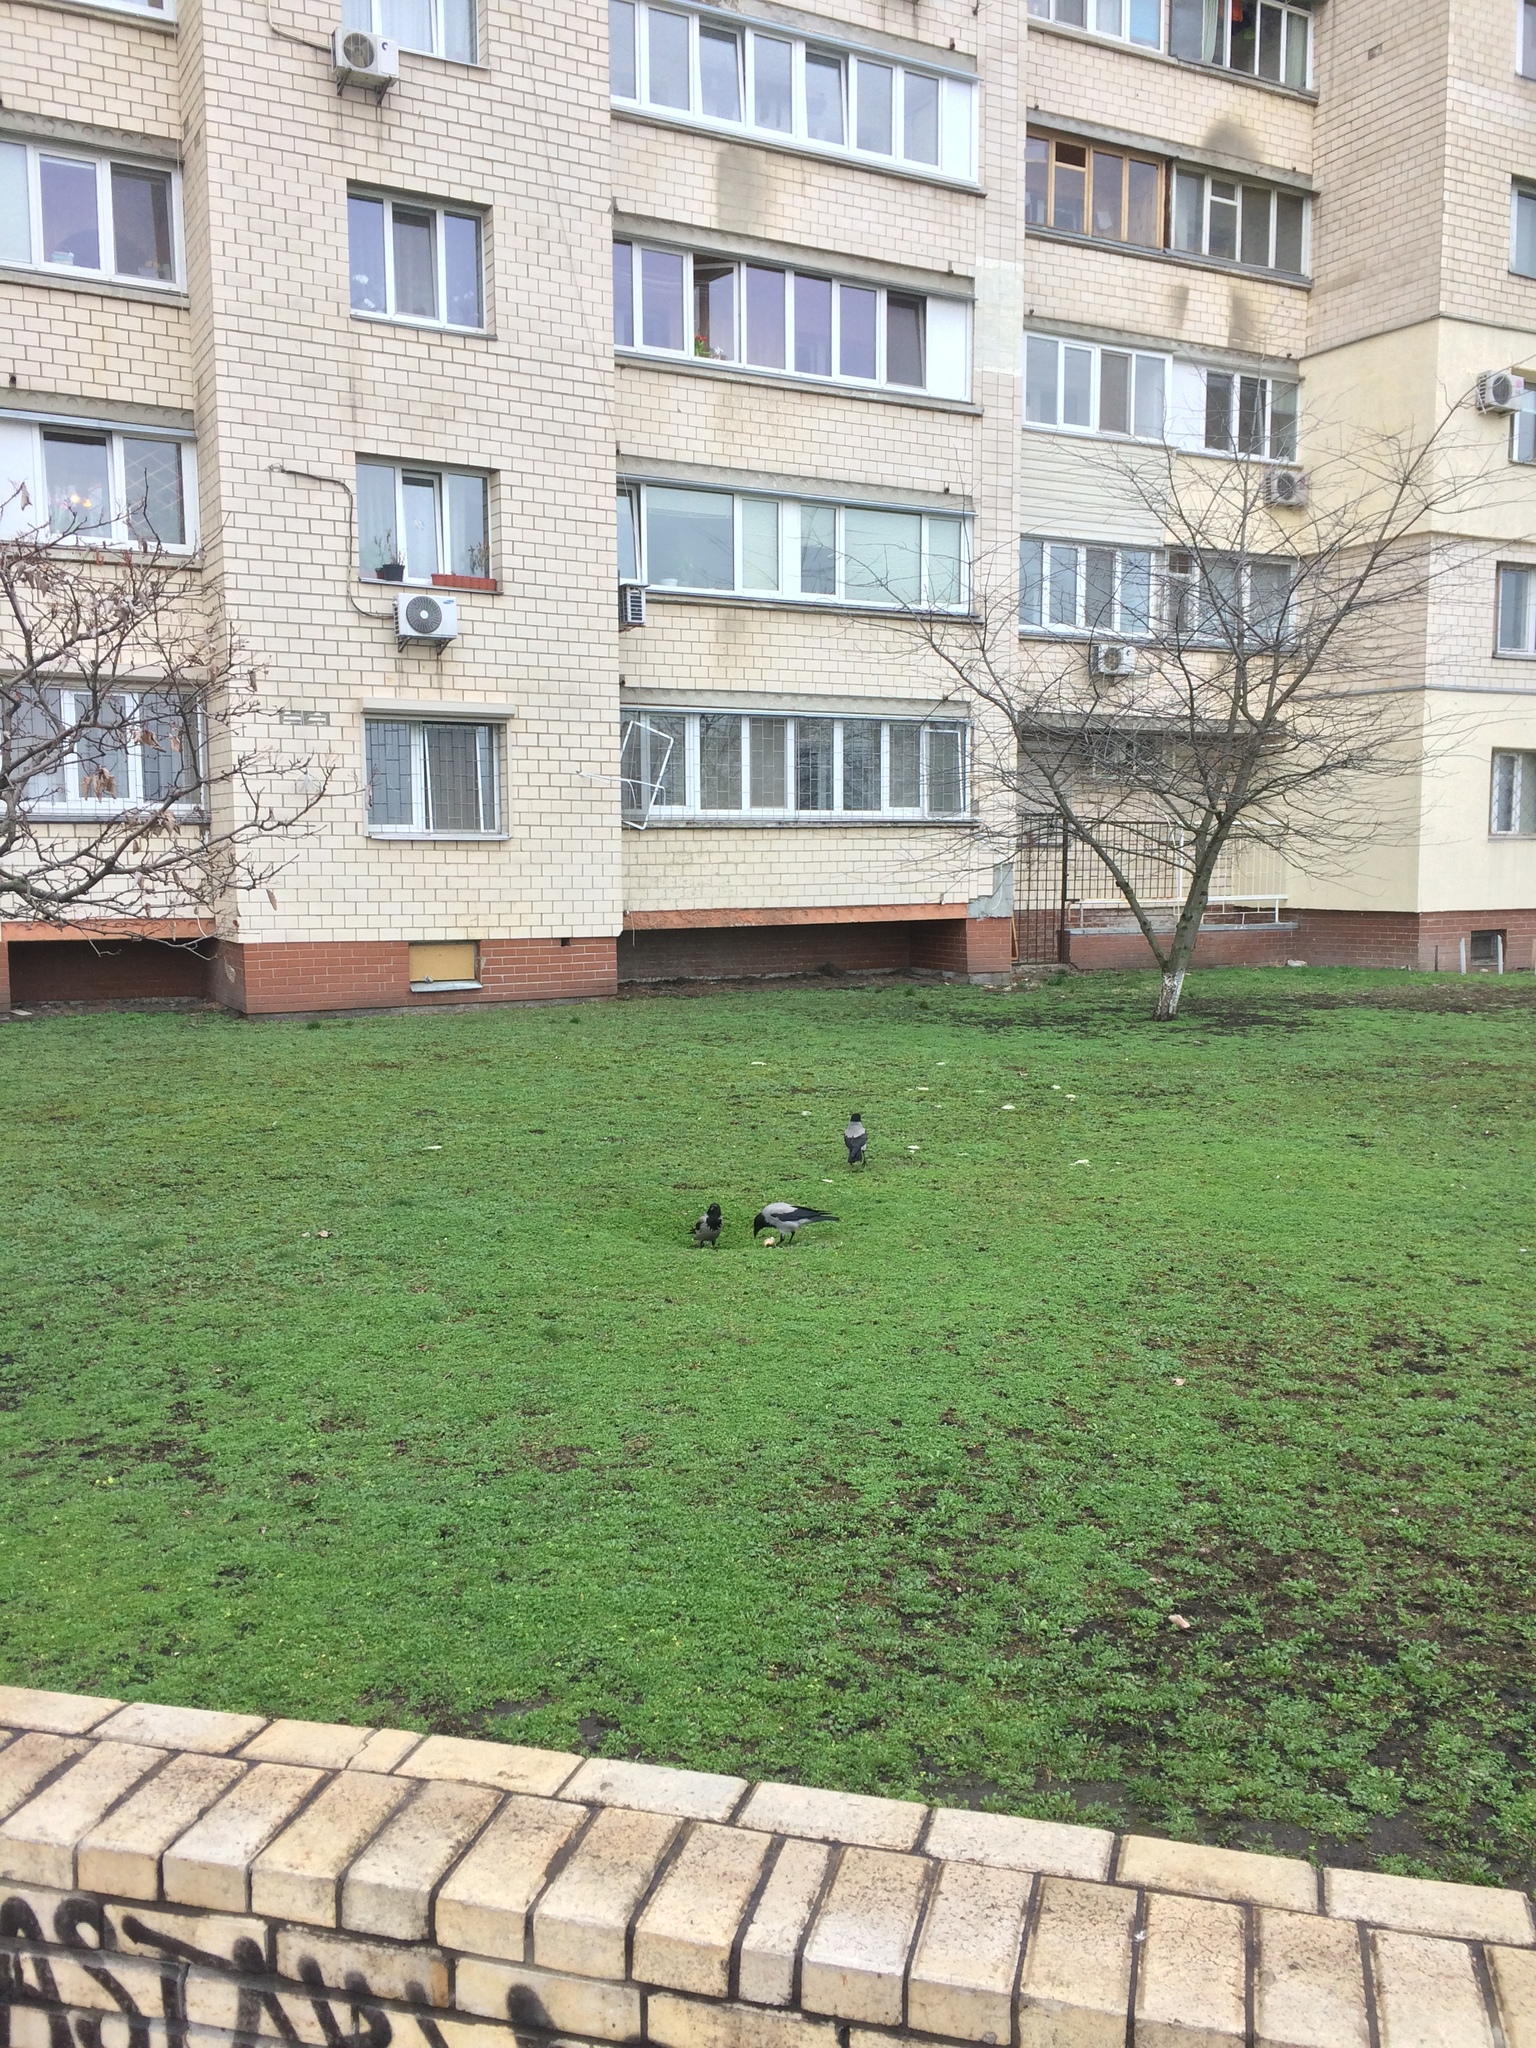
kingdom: Animalia
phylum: Chordata
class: Aves
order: Passeriformes
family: Corvidae
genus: Corvus
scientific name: Corvus cornix
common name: Hooded crow
